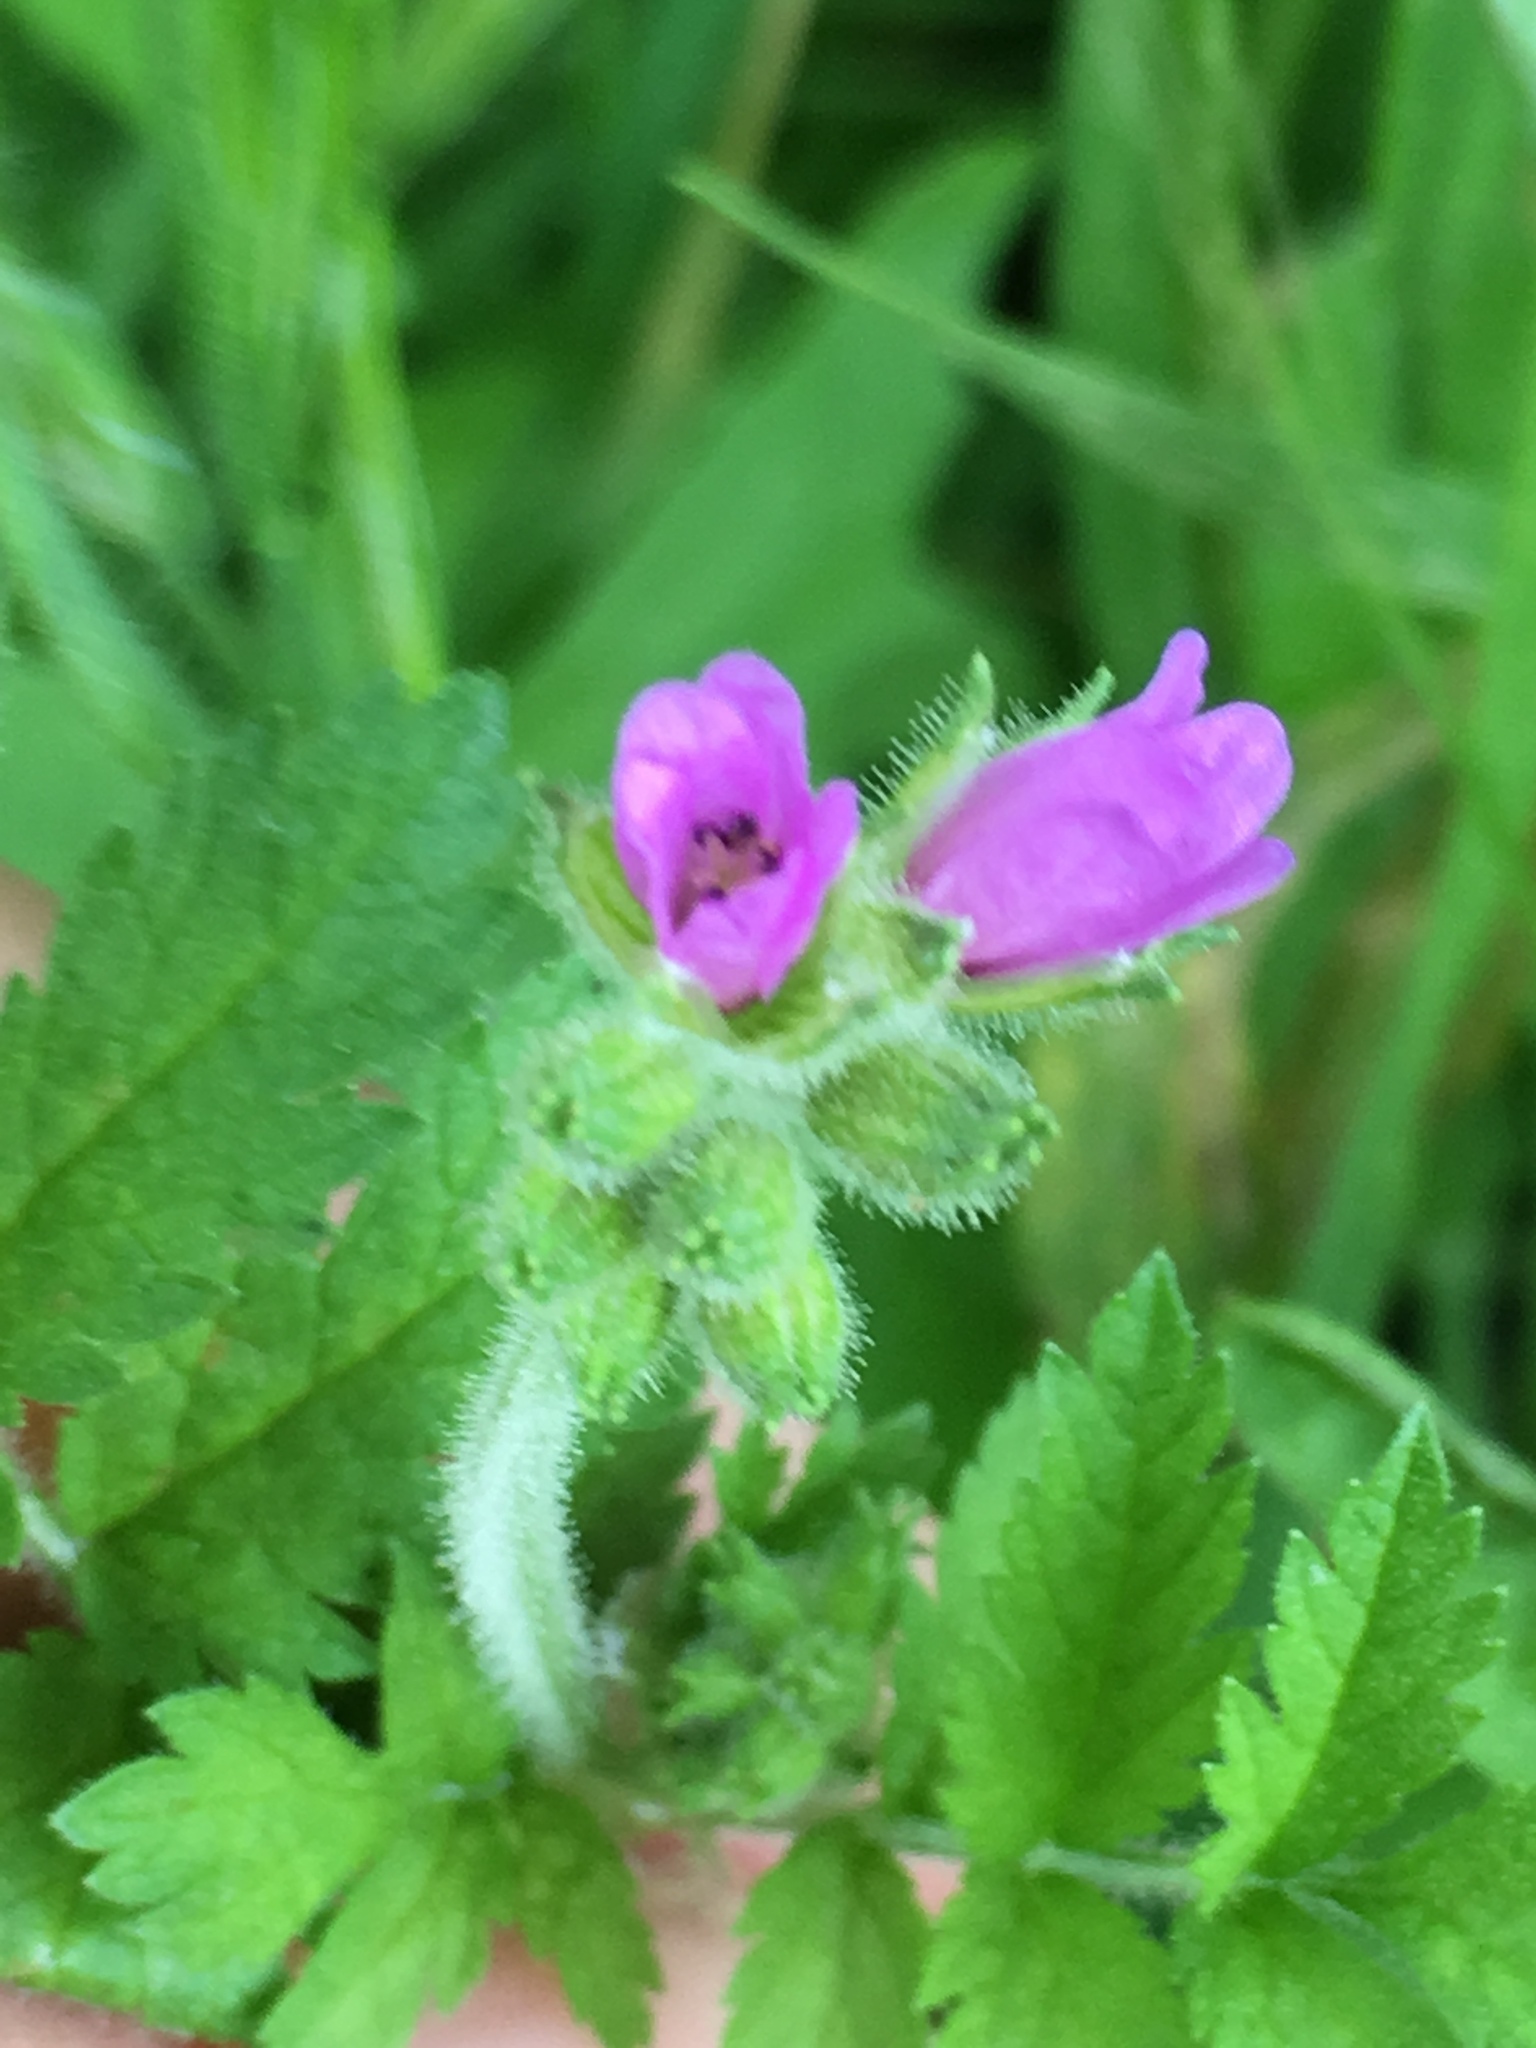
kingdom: Plantae
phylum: Tracheophyta
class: Magnoliopsida
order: Geraniales
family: Geraniaceae
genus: Erodium
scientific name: Erodium moschatum
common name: Musk stork's-bill
